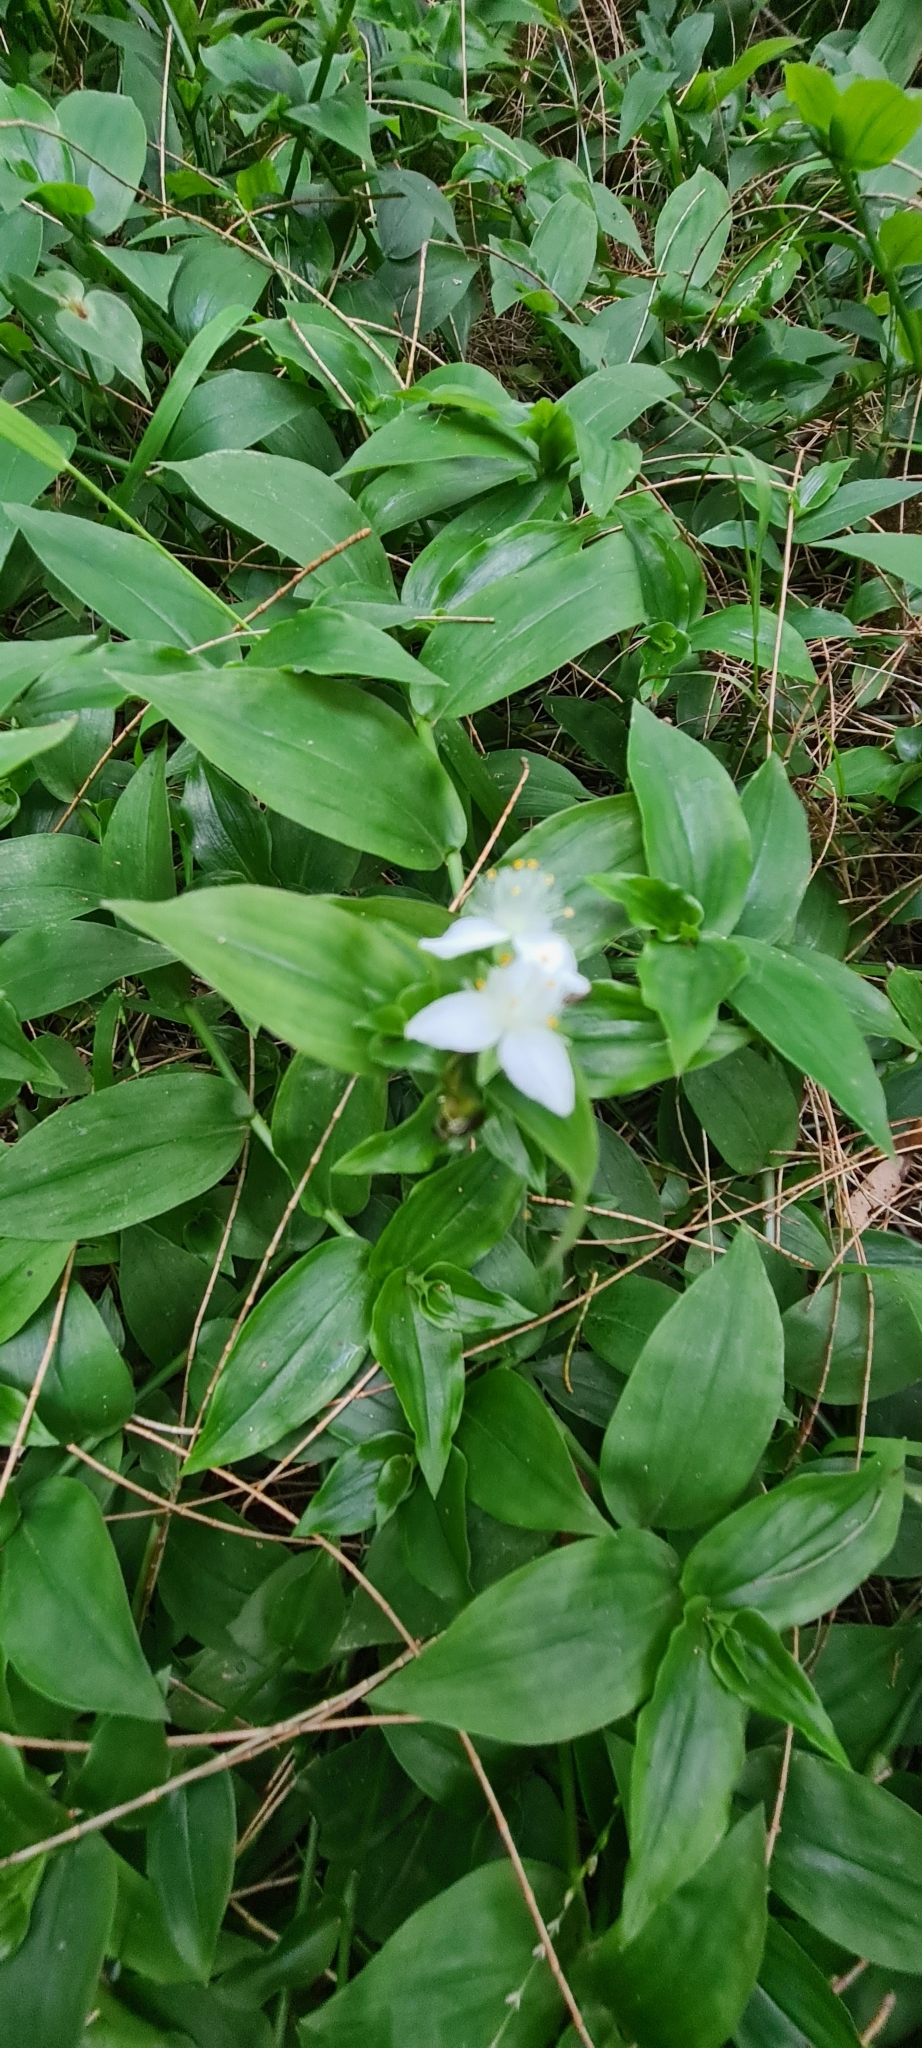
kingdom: Plantae
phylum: Tracheophyta
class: Liliopsida
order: Commelinales
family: Commelinaceae
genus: Tradescantia
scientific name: Tradescantia fluminensis
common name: Wandering-jew
